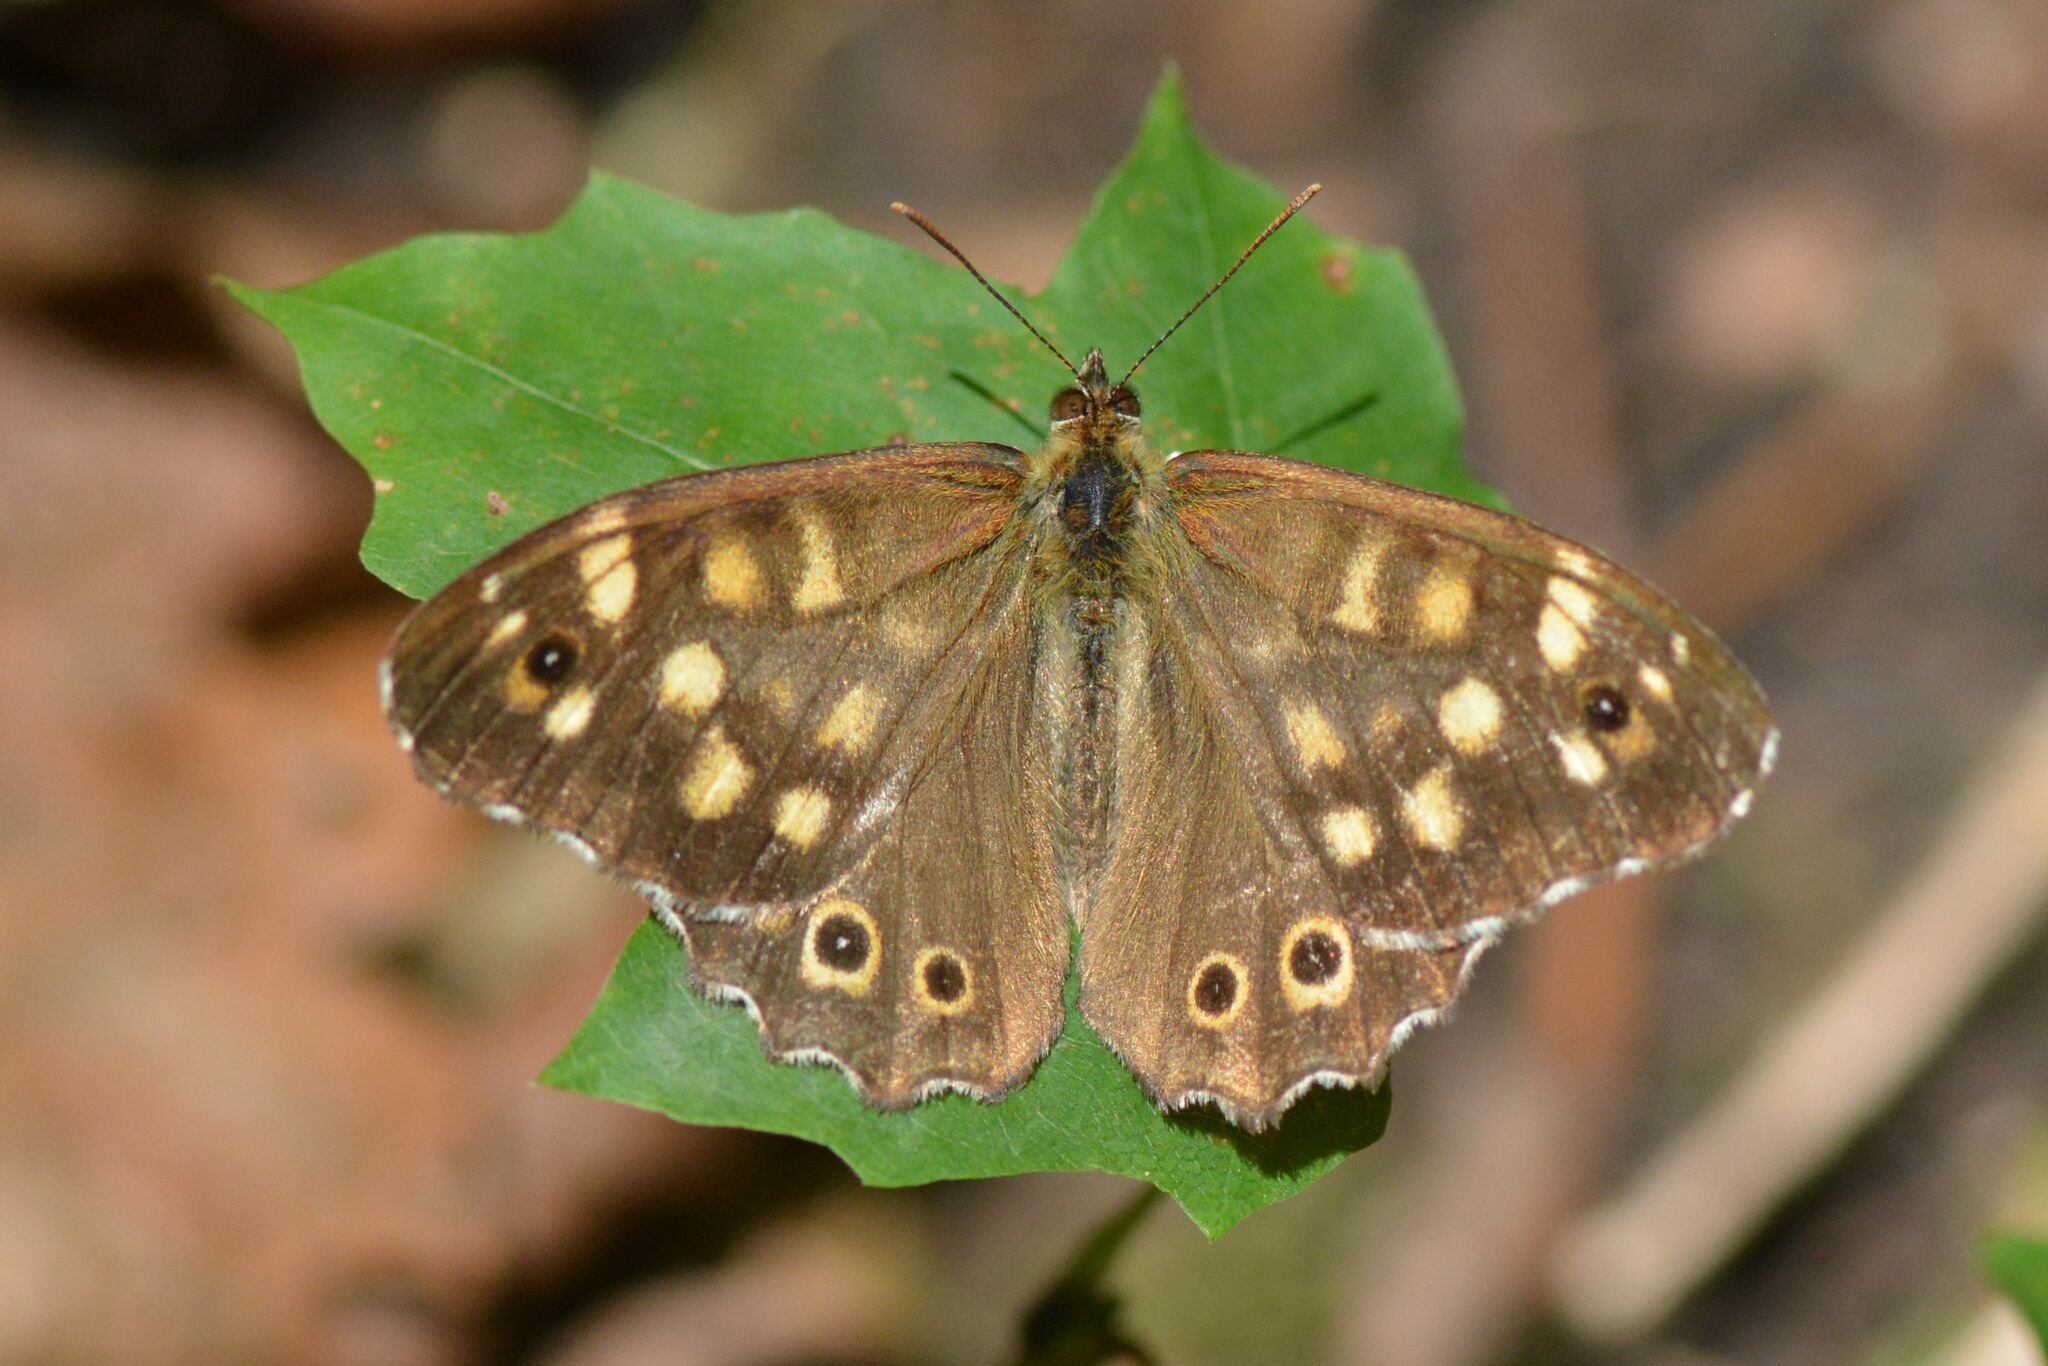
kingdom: Animalia
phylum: Arthropoda
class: Insecta
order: Lepidoptera
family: Nymphalidae
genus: Pararge
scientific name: Pararge aegeria
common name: Speckled wood
